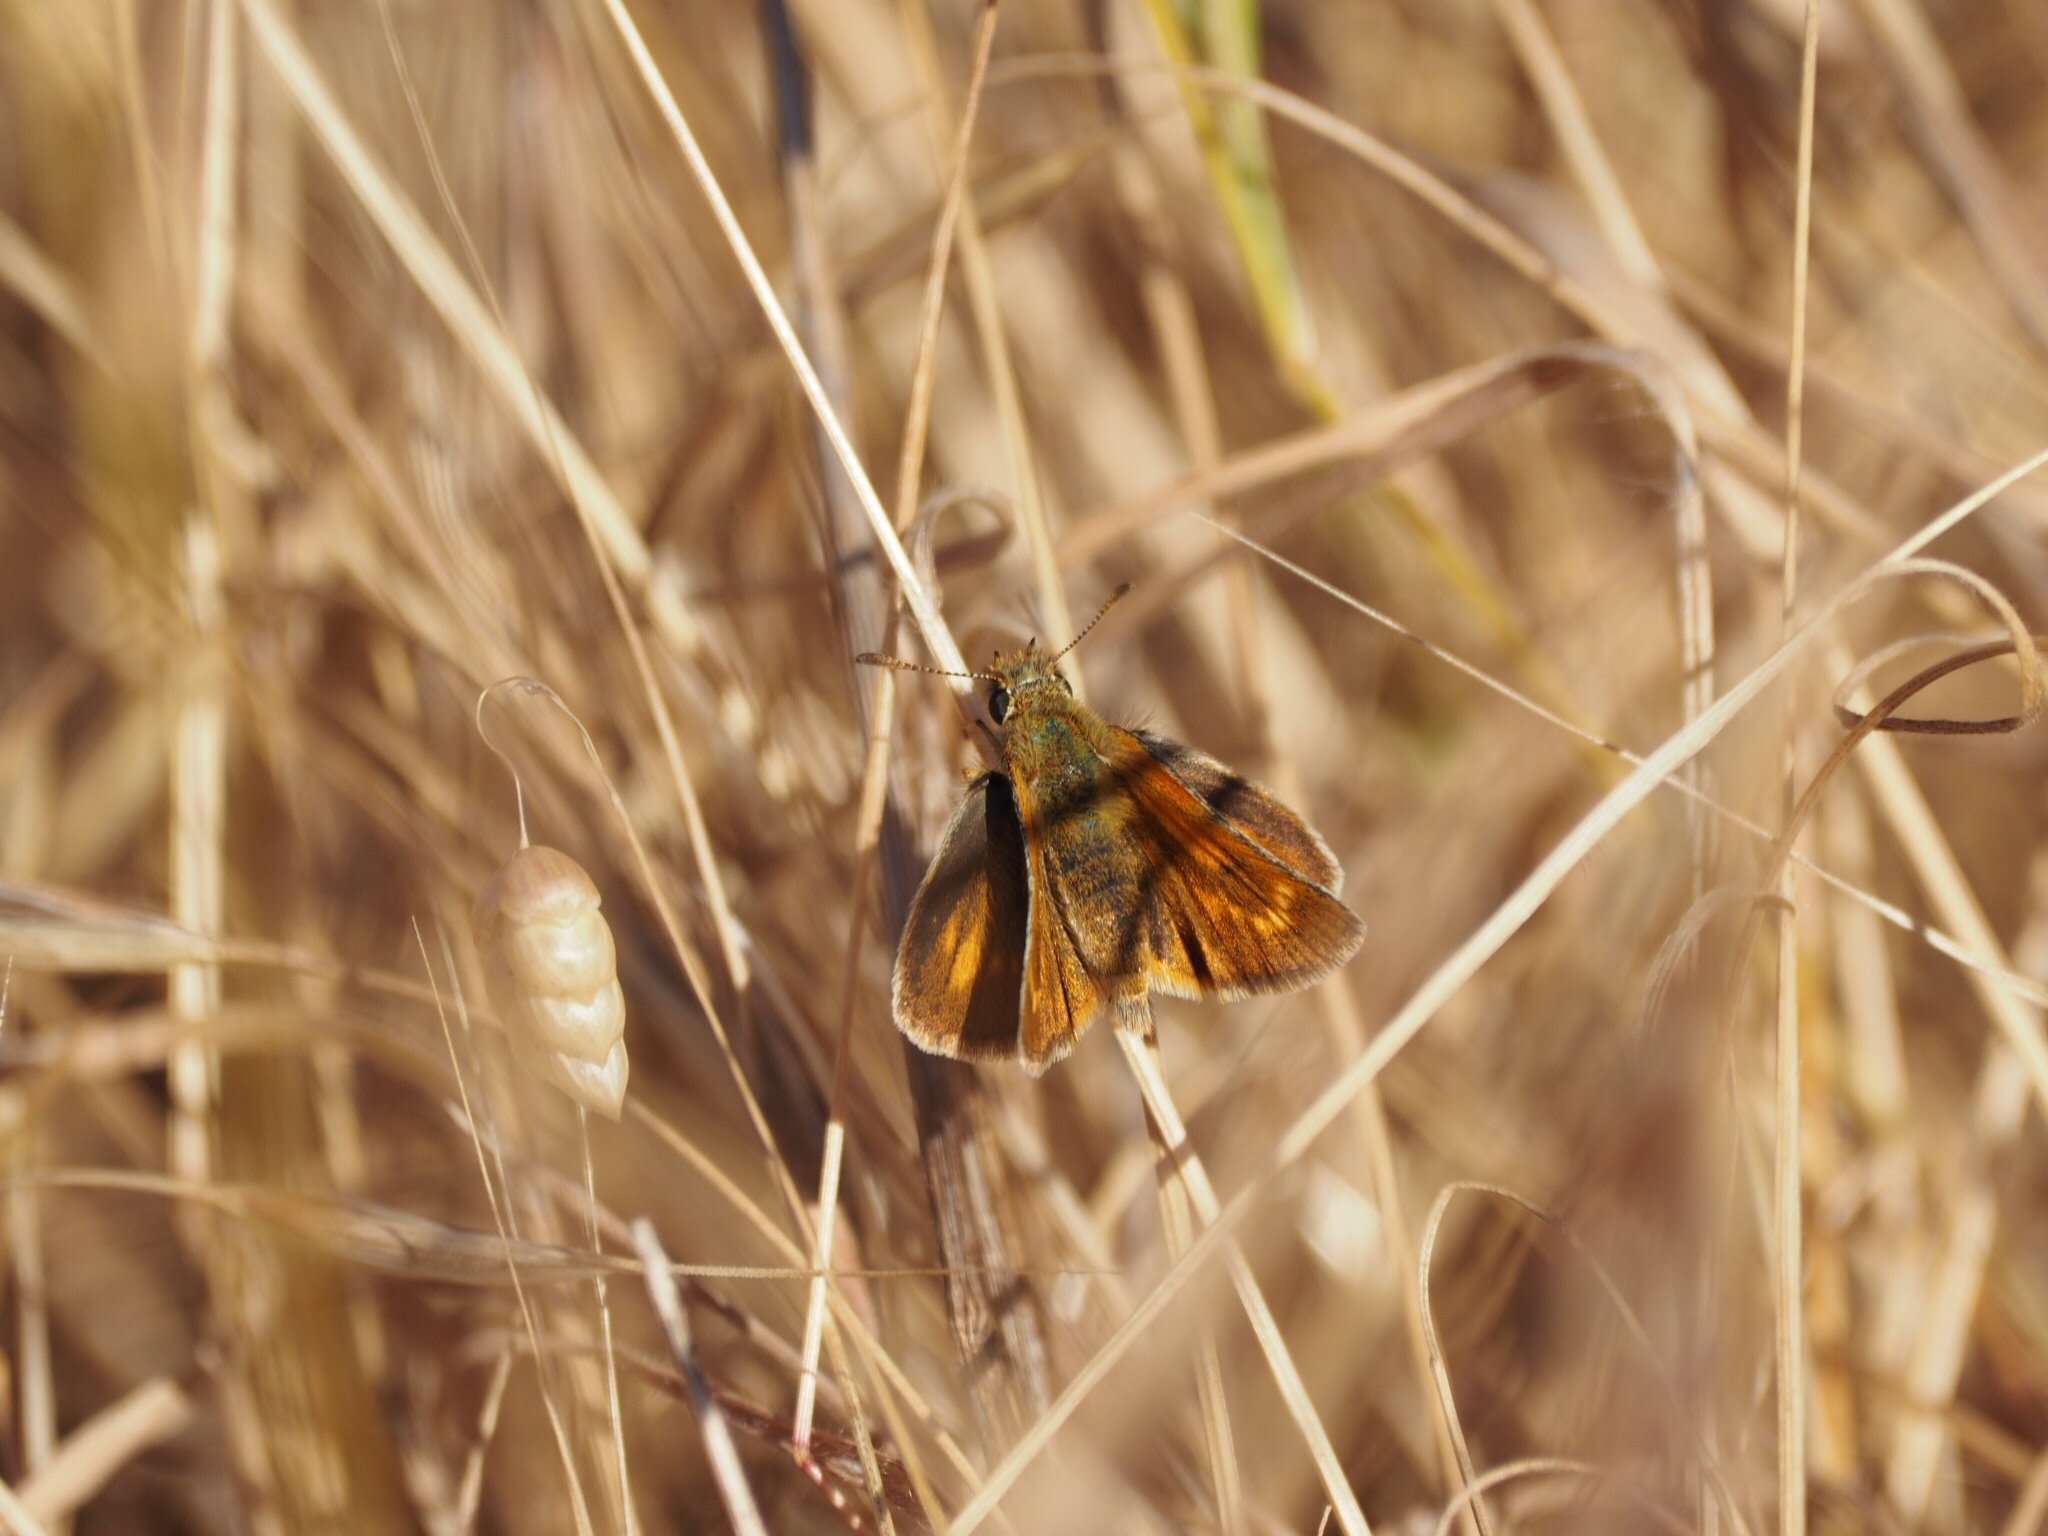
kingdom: Animalia
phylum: Arthropoda
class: Insecta
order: Lepidoptera
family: Hesperiidae
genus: Thymelicus
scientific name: Thymelicus acteon
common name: Lulworth skipper
